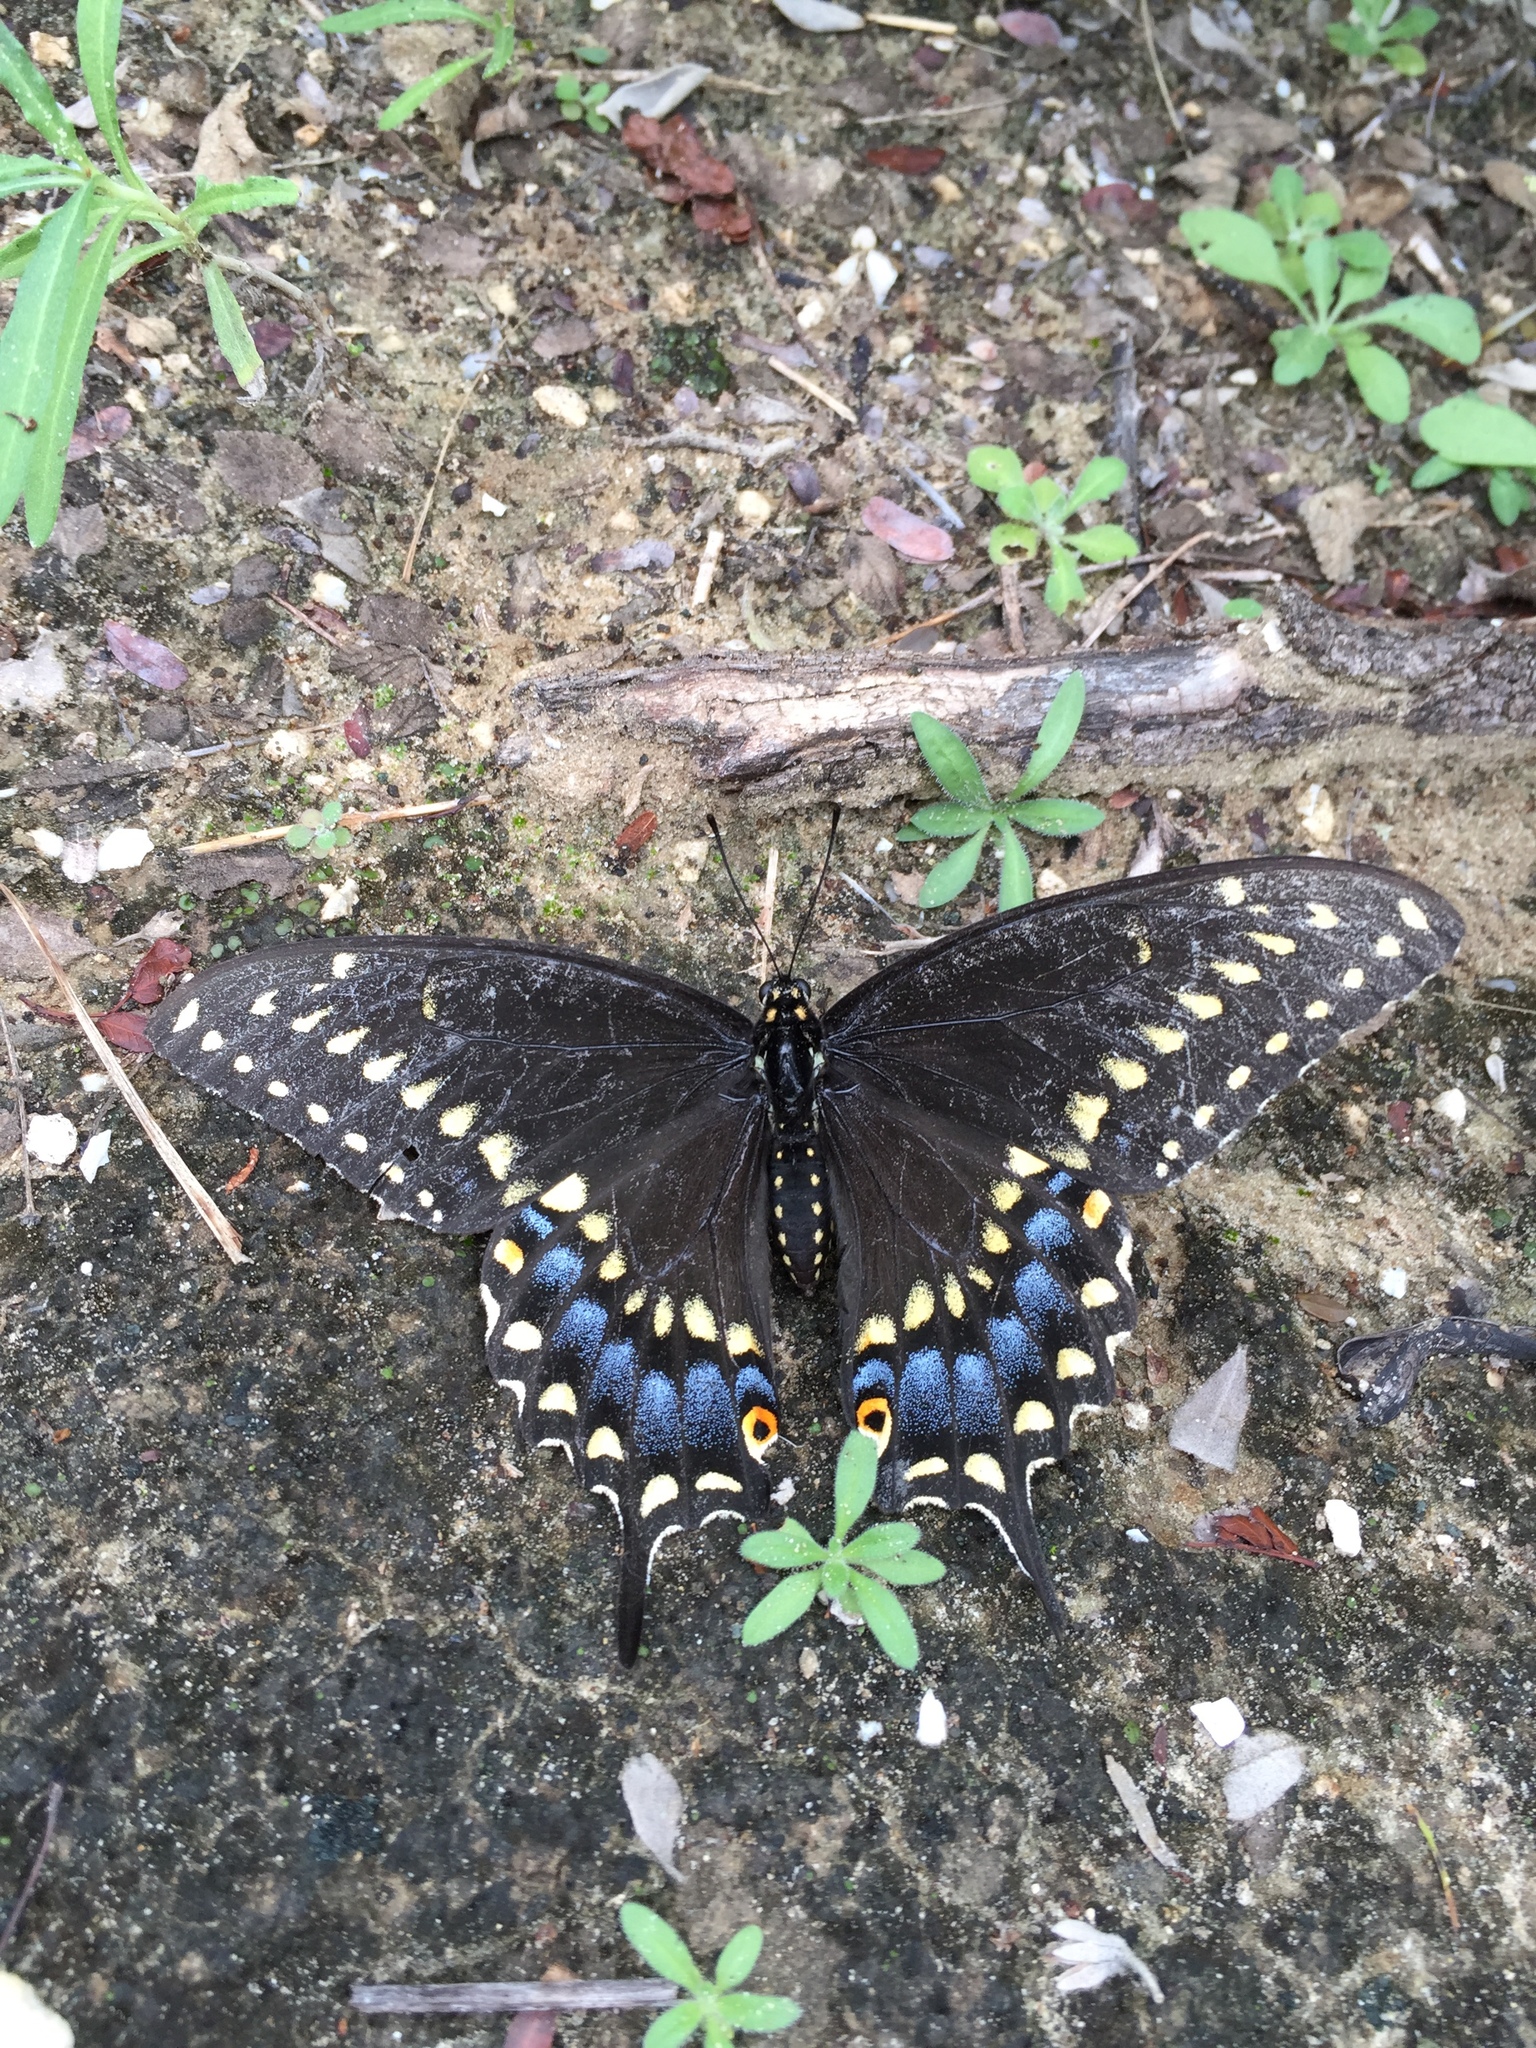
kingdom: Animalia
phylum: Arthropoda
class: Insecta
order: Lepidoptera
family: Papilionidae
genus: Papilio
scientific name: Papilio polyxenes
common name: Black swallowtail
